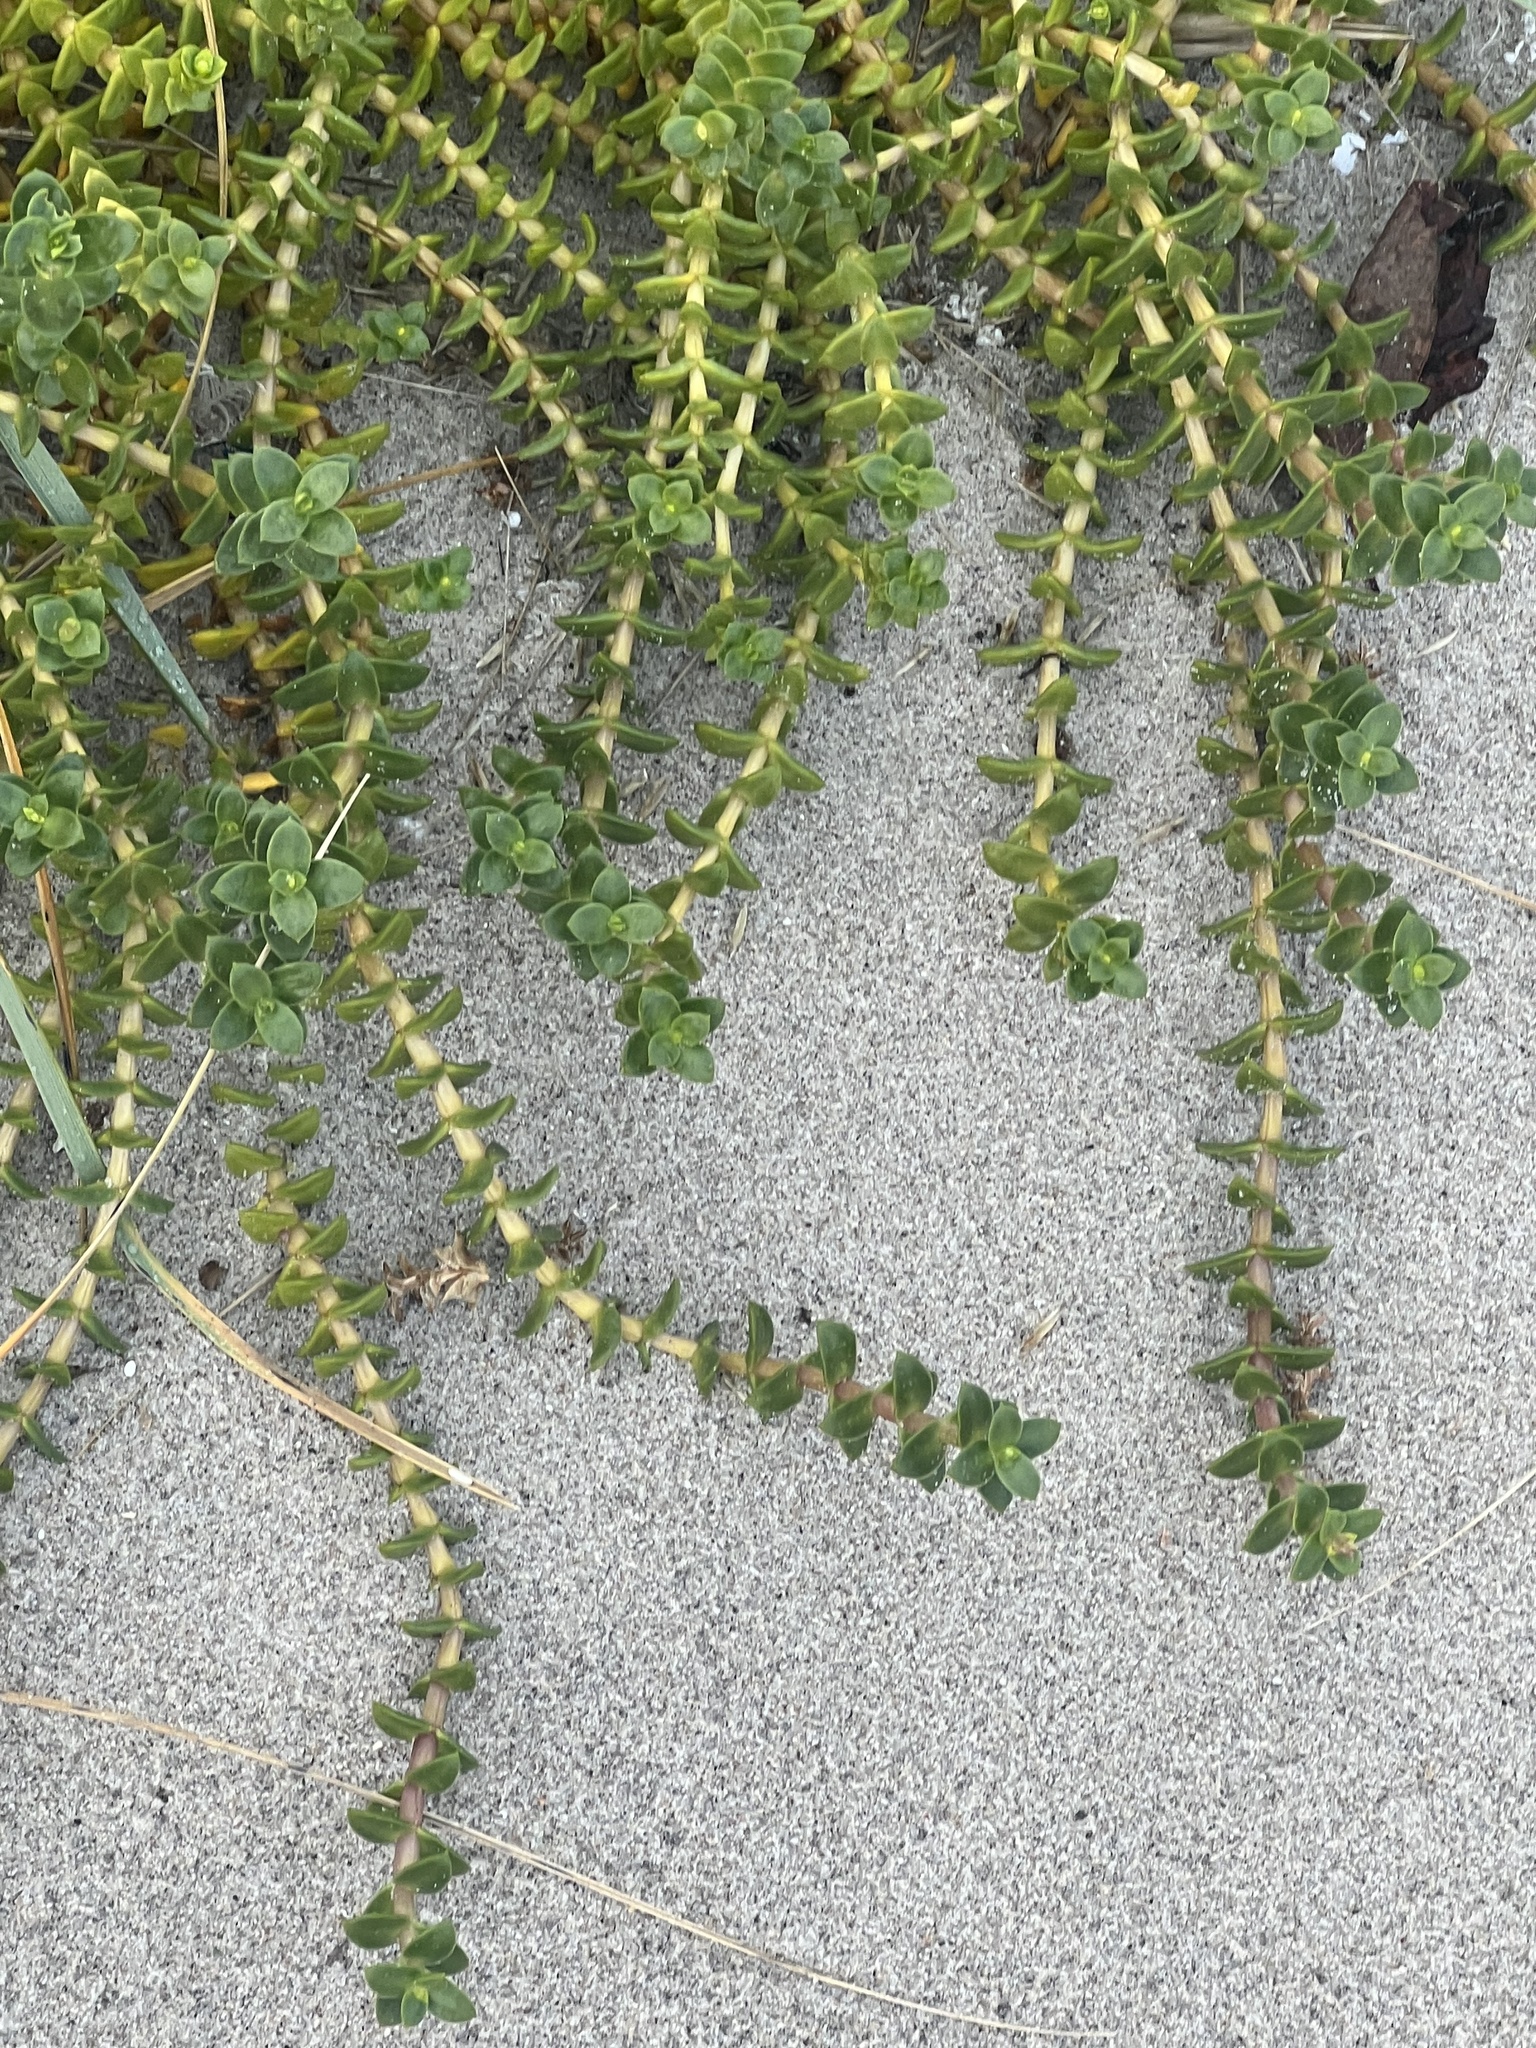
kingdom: Plantae
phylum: Tracheophyta
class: Magnoliopsida
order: Caryophyllales
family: Caryophyllaceae
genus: Honckenya
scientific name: Honckenya peploides
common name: Sea sandwort
